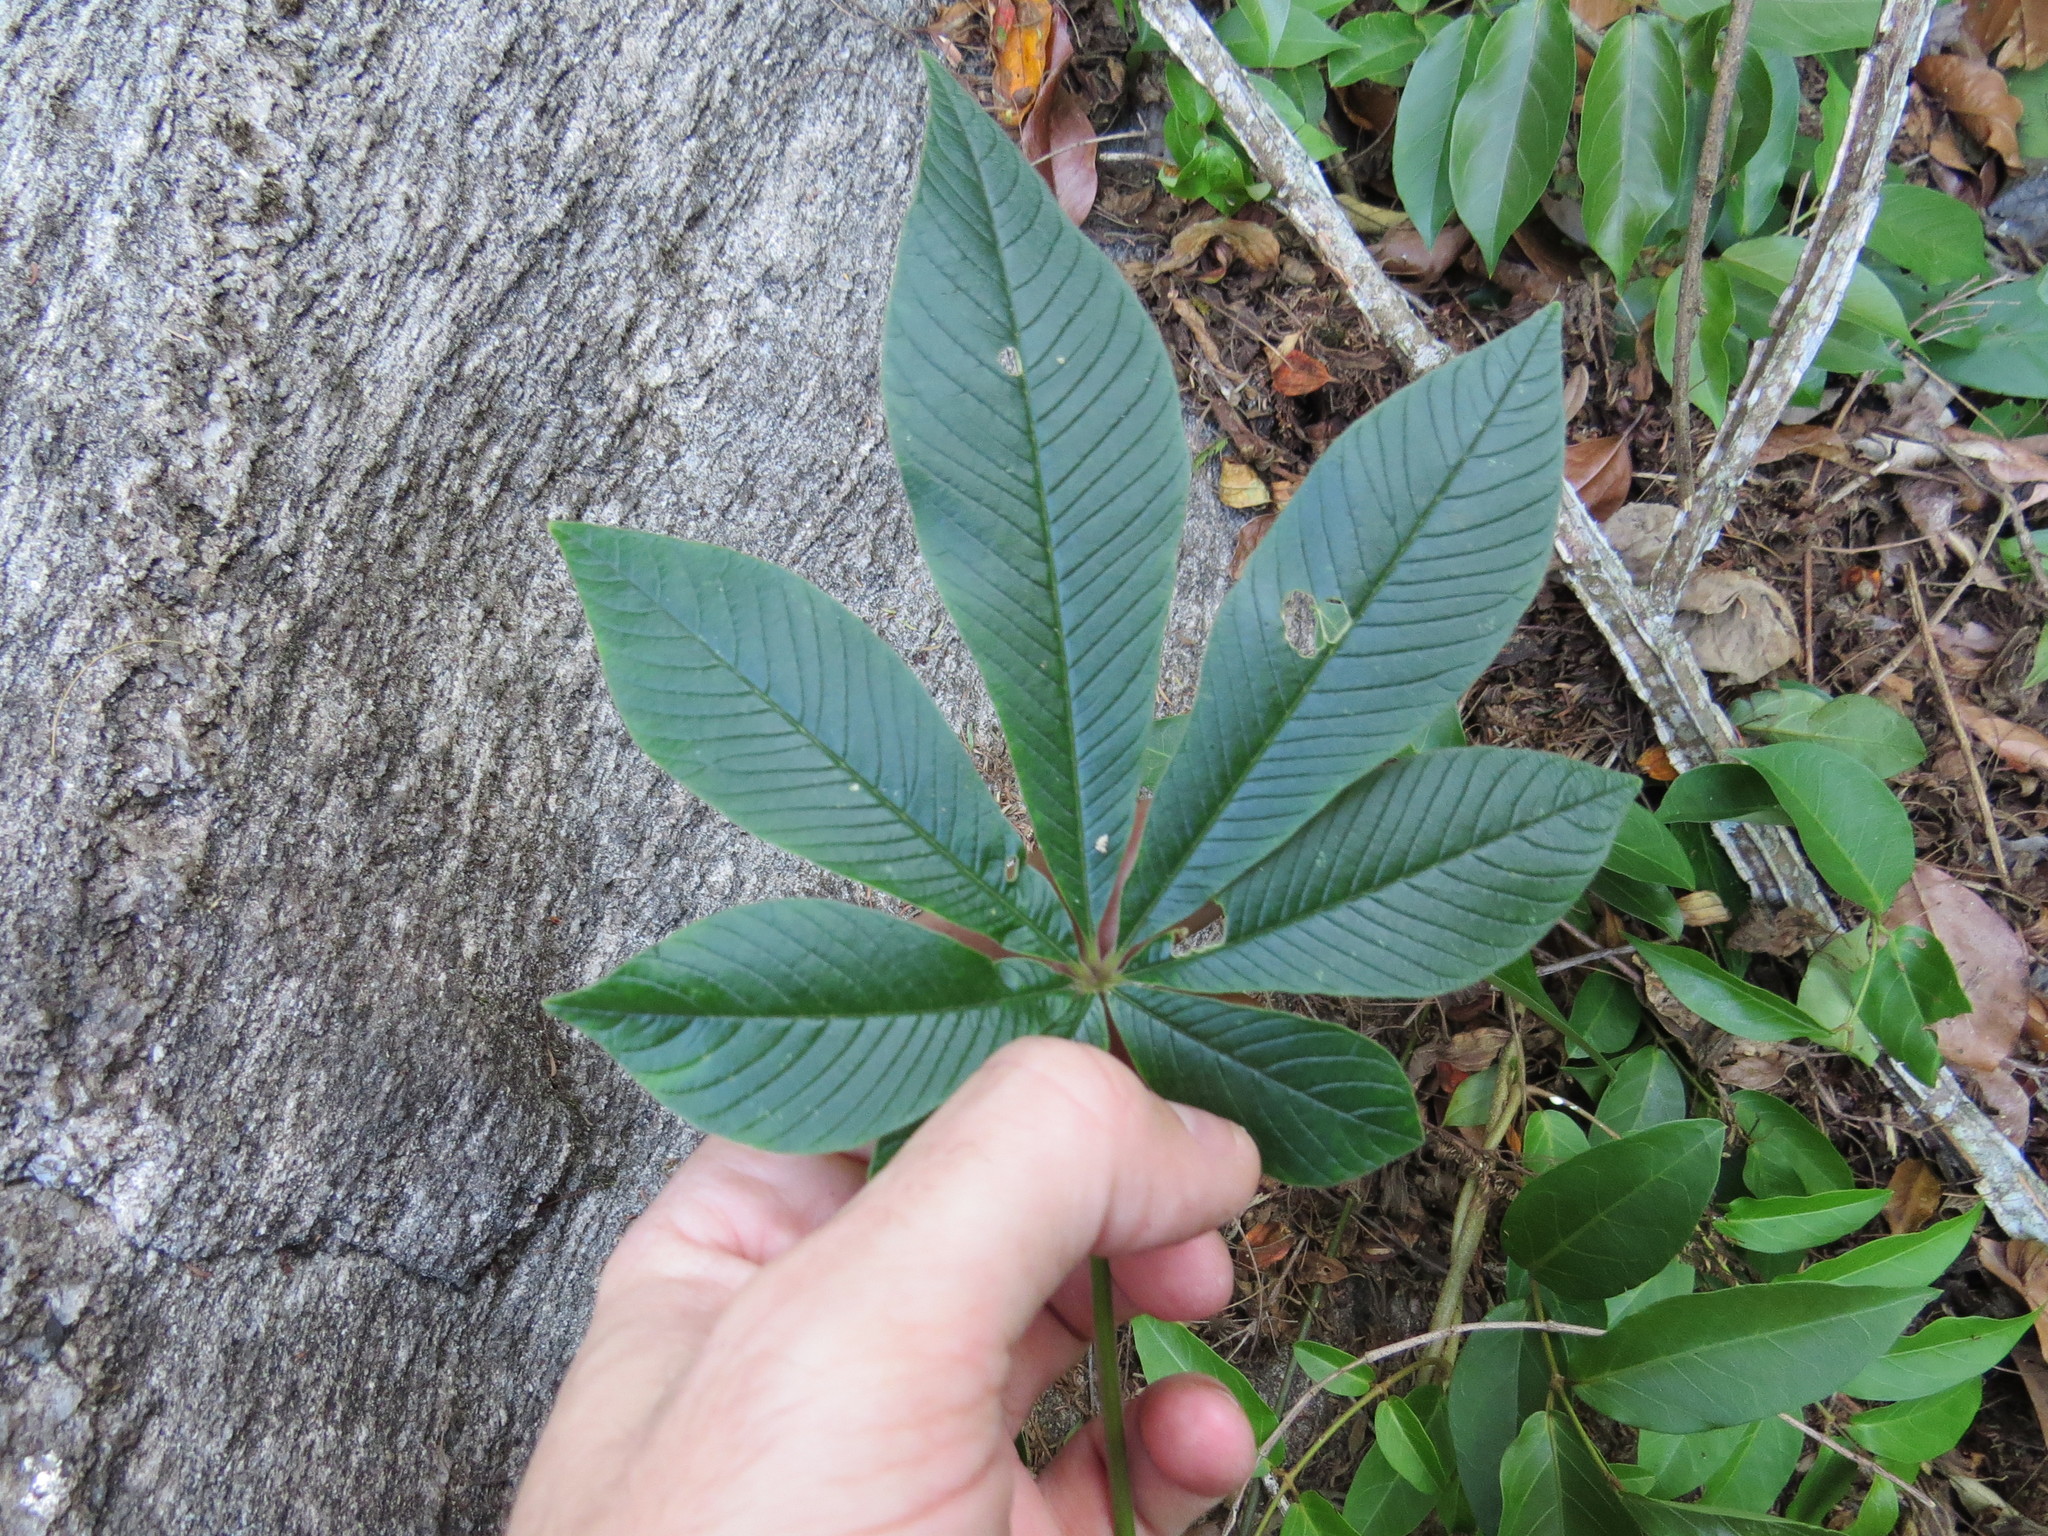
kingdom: Plantae
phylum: Tracheophyta
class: Magnoliopsida
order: Brassicales
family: Cleomaceae
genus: Tarenaya
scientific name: Tarenaya atropurpurea
